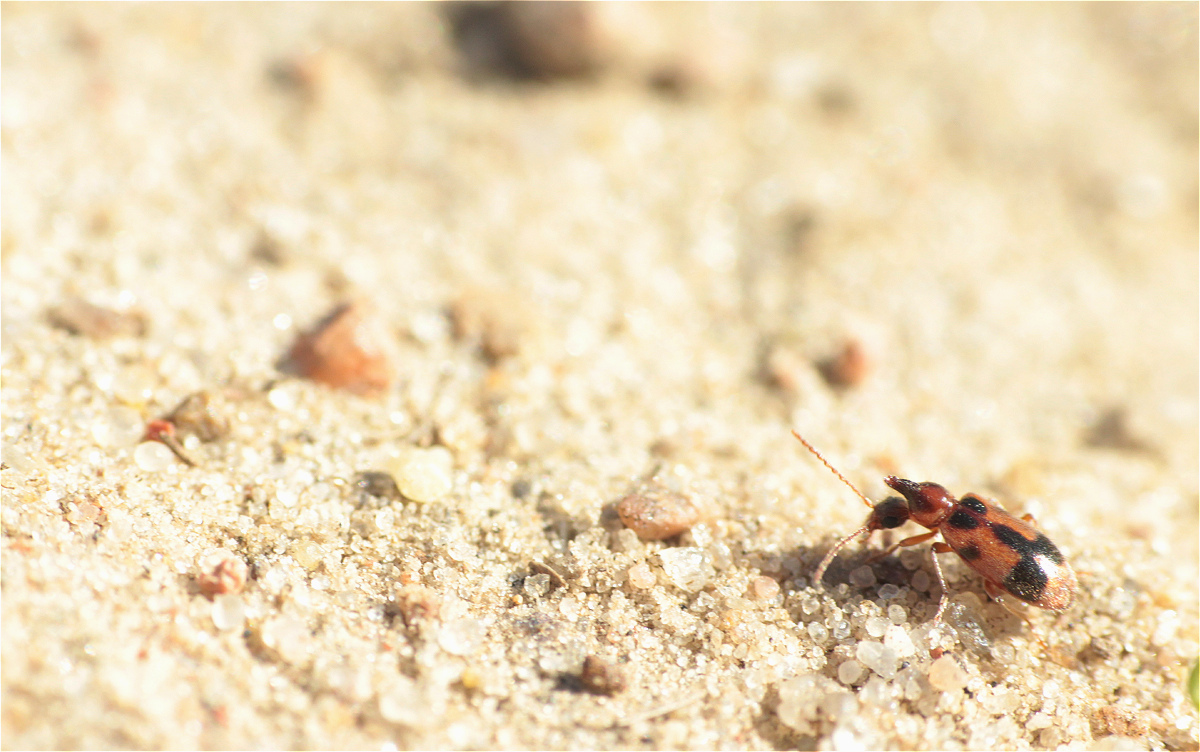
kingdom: Animalia
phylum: Arthropoda
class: Insecta
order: Coleoptera
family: Anthicidae
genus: Notoxus
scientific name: Notoxus monoceros
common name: Monoceros beetle
